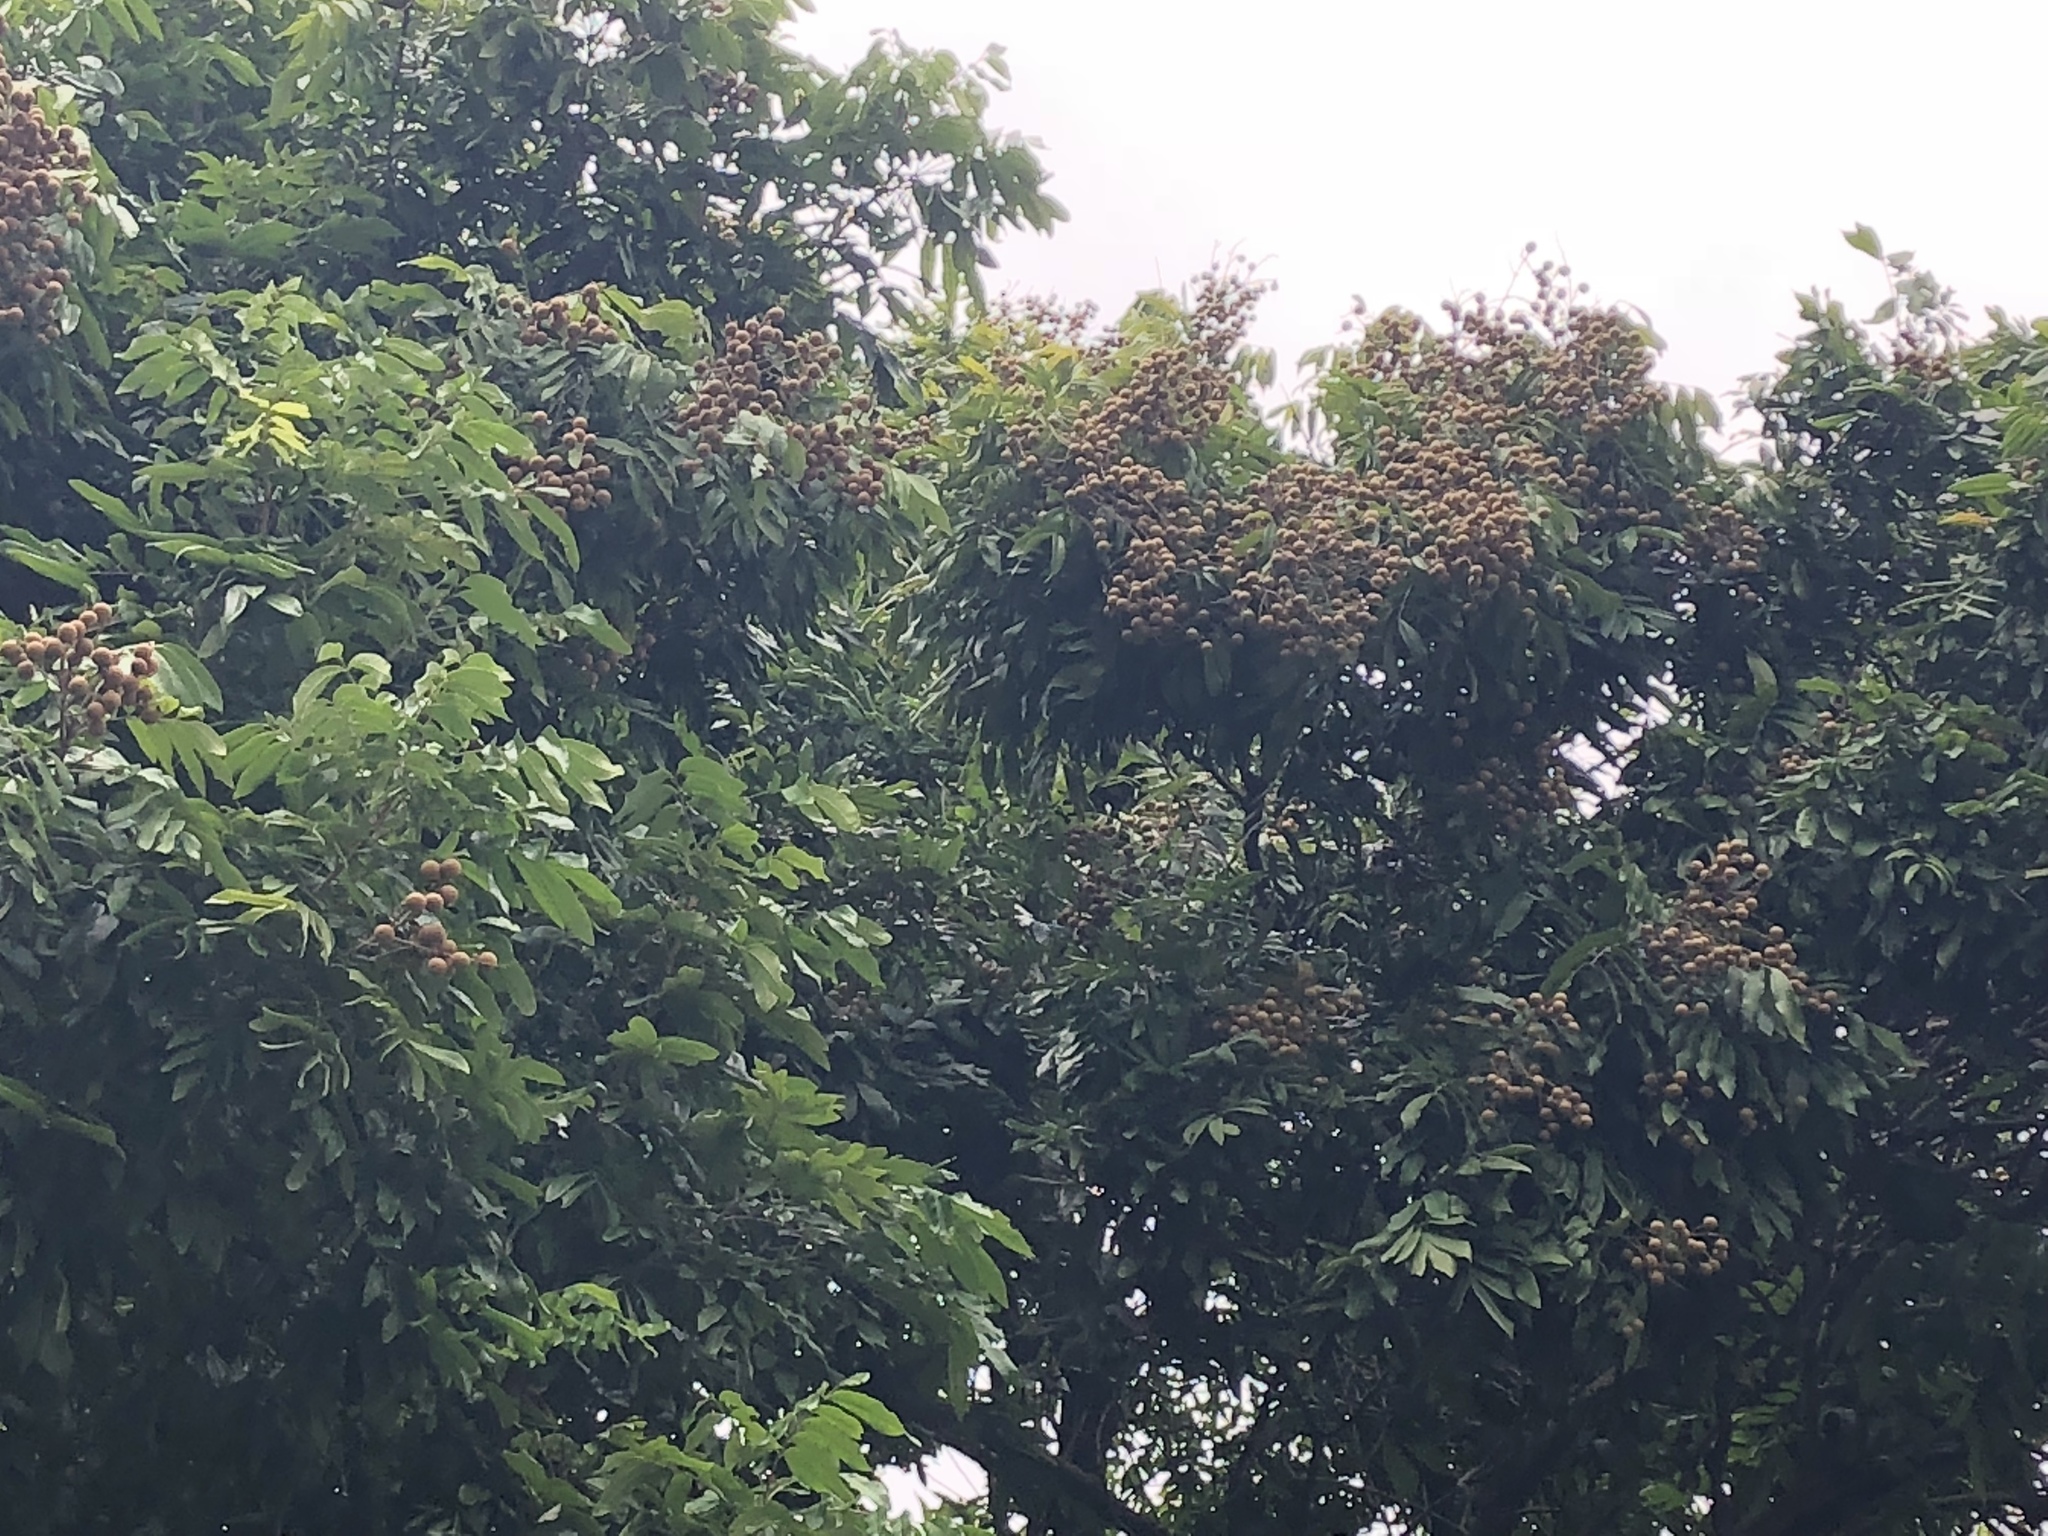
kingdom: Plantae
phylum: Tracheophyta
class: Magnoliopsida
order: Sapindales
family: Sapindaceae
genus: Dimocarpus
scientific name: Dimocarpus longan
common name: Longan
